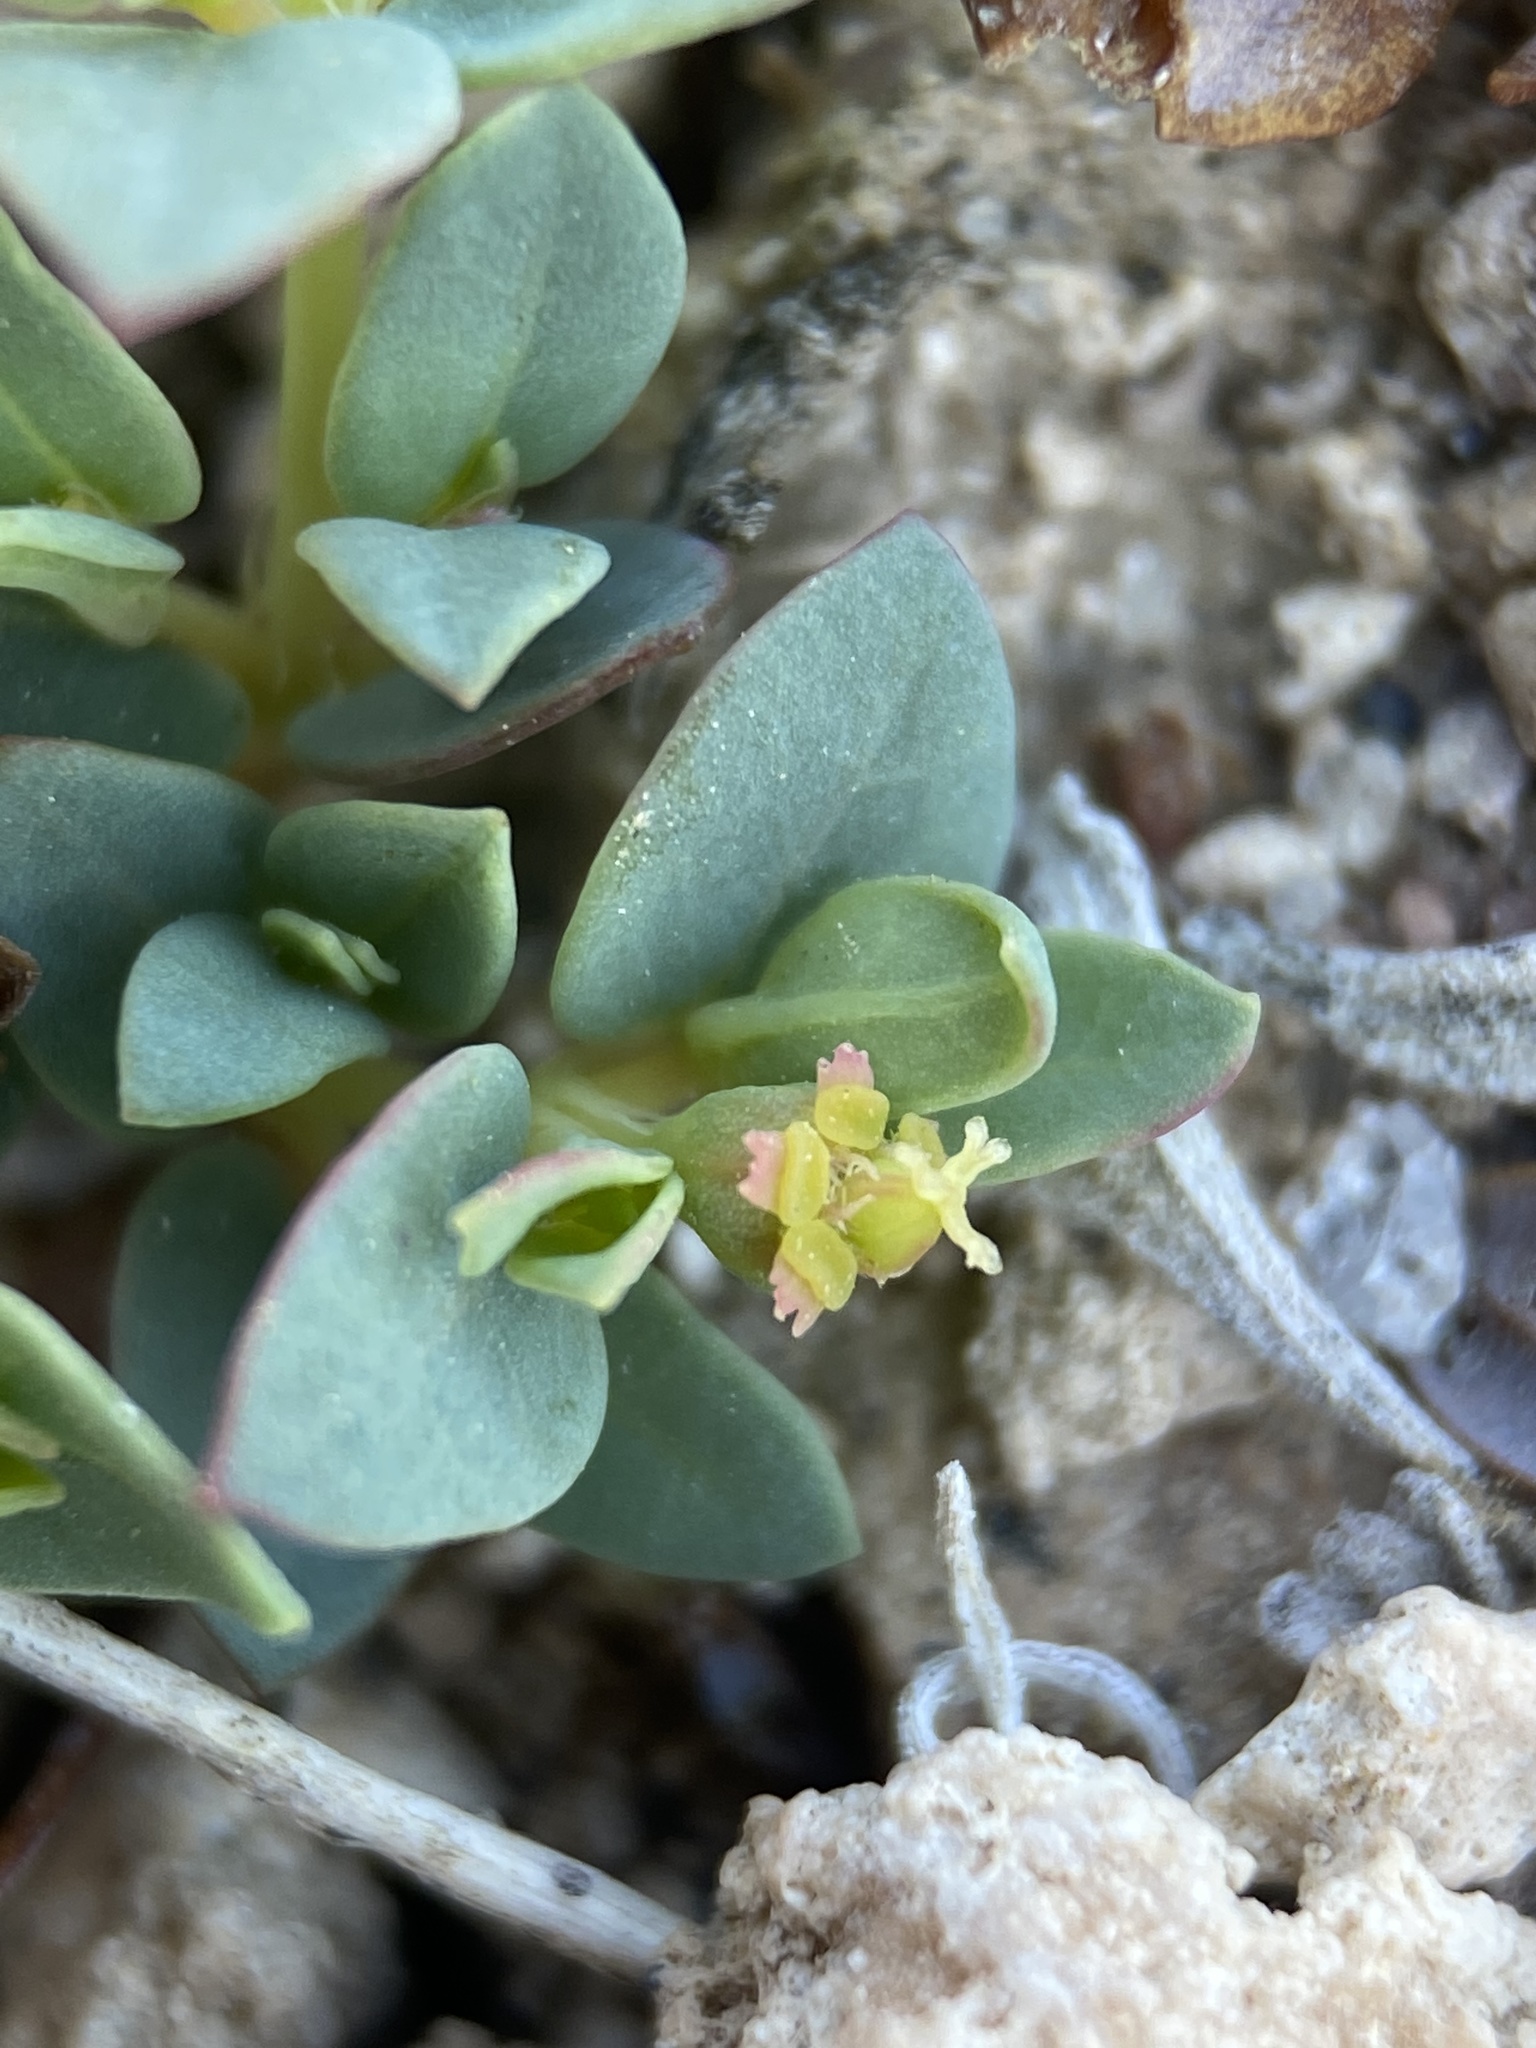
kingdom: Plantae
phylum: Tracheophyta
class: Magnoliopsida
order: Malpighiales
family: Euphorbiaceae
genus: Euphorbia
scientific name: Euphorbia fendleri
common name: Fendler's euphorbia
